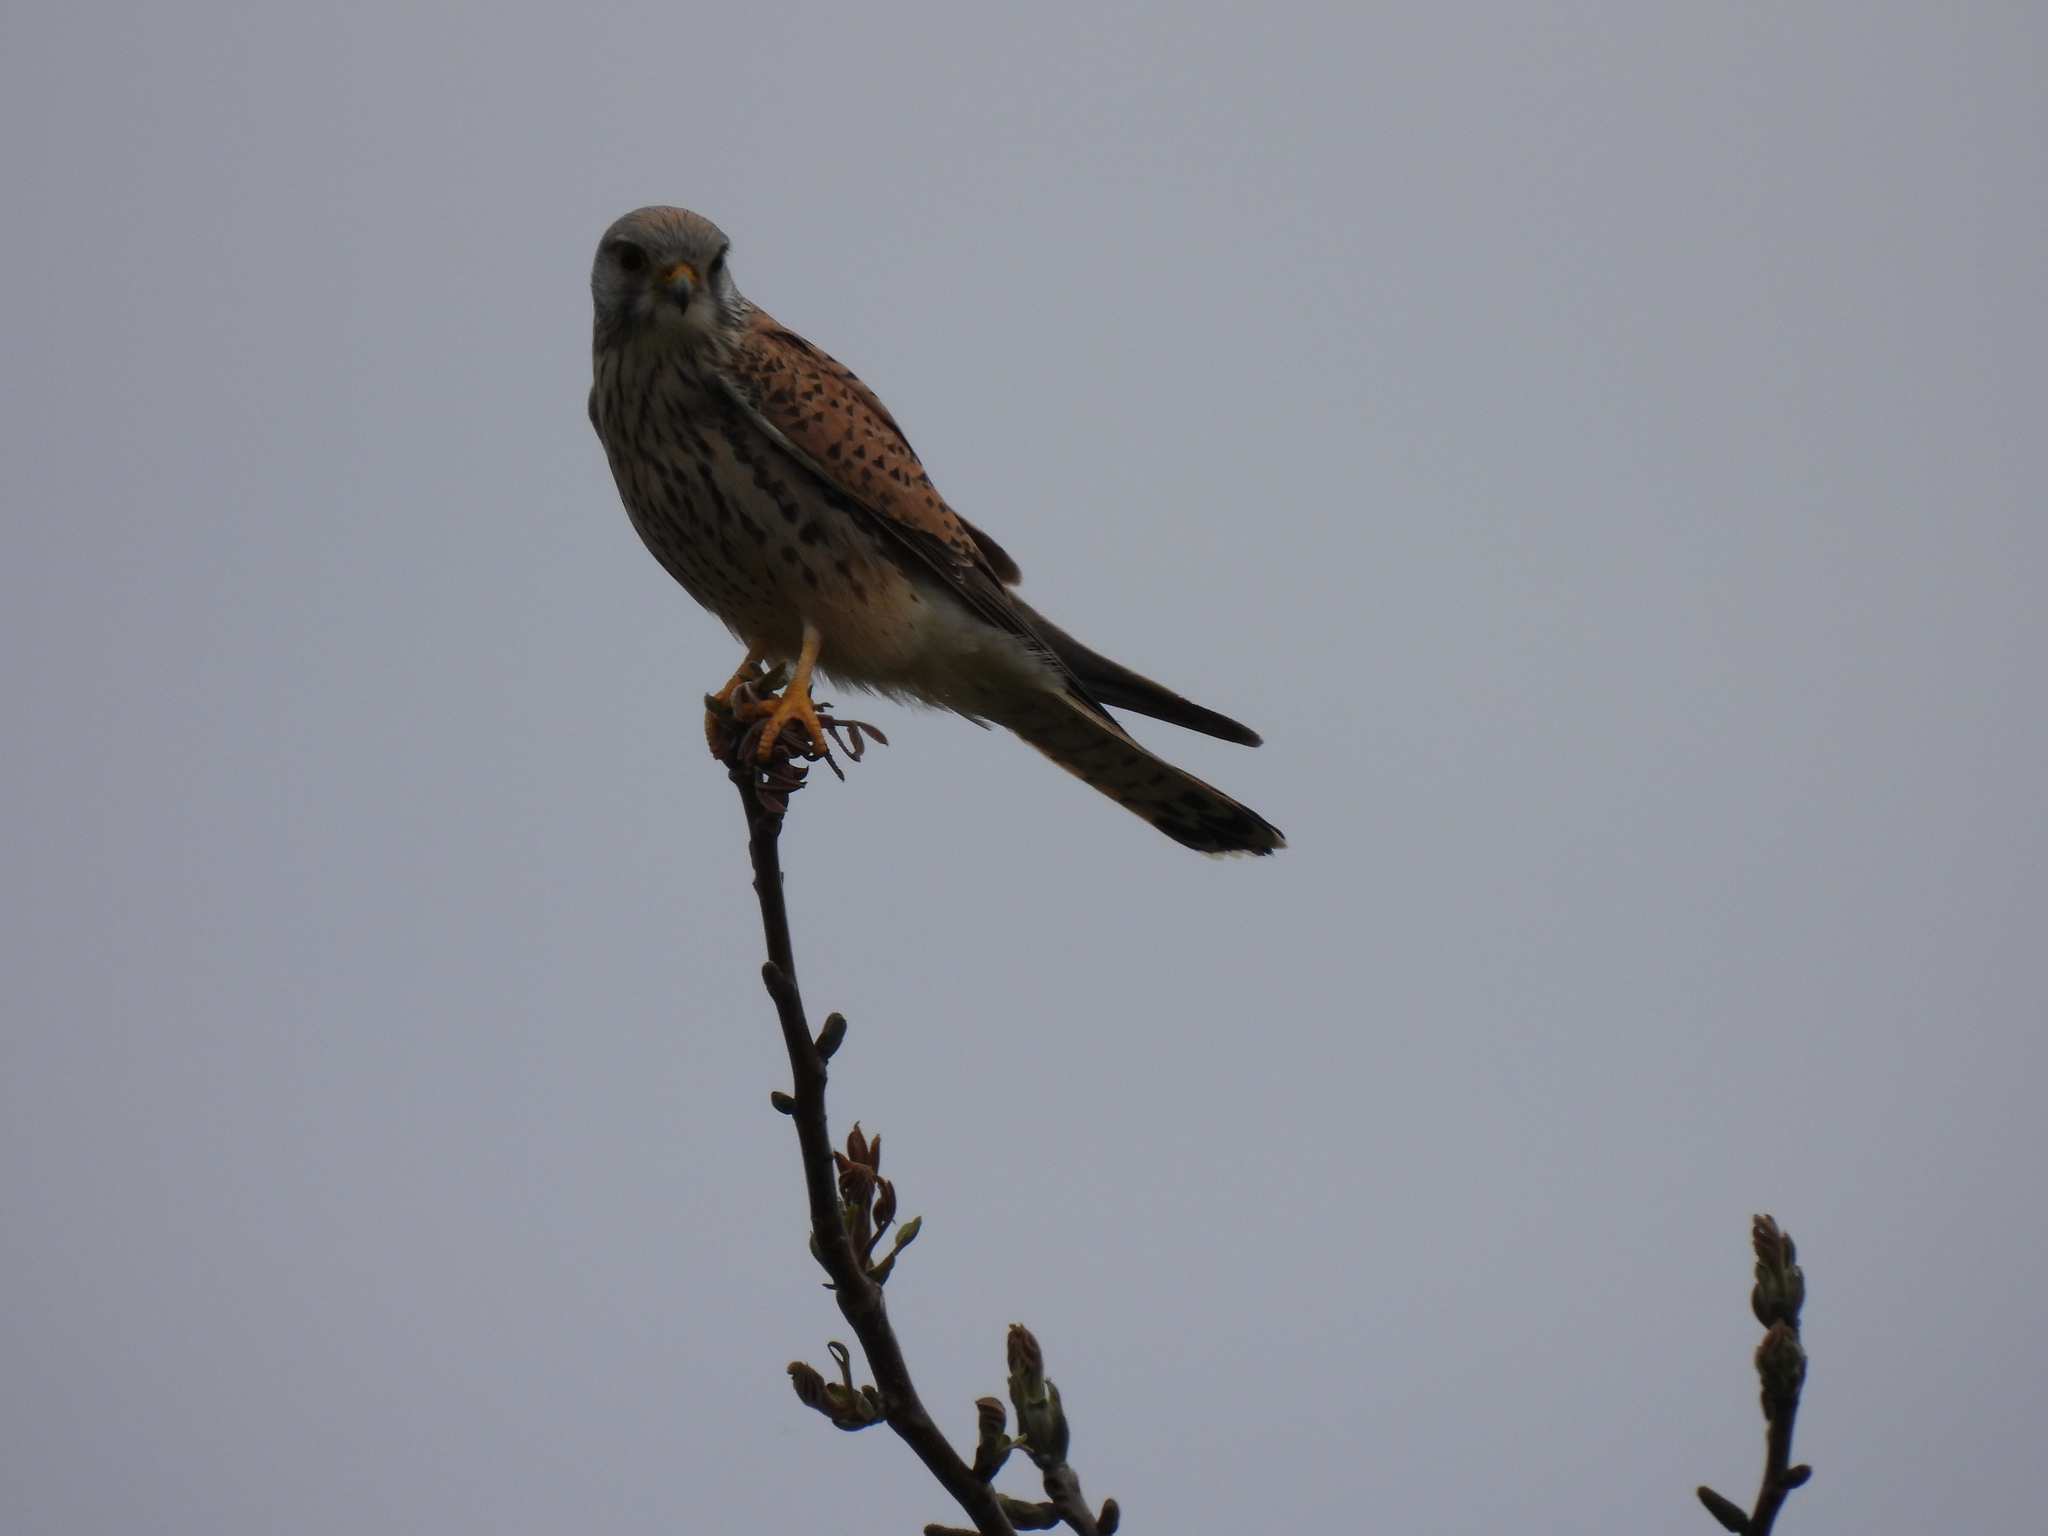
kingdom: Animalia
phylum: Chordata
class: Aves
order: Falconiformes
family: Falconidae
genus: Falco
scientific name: Falco tinnunculus
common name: Common kestrel
